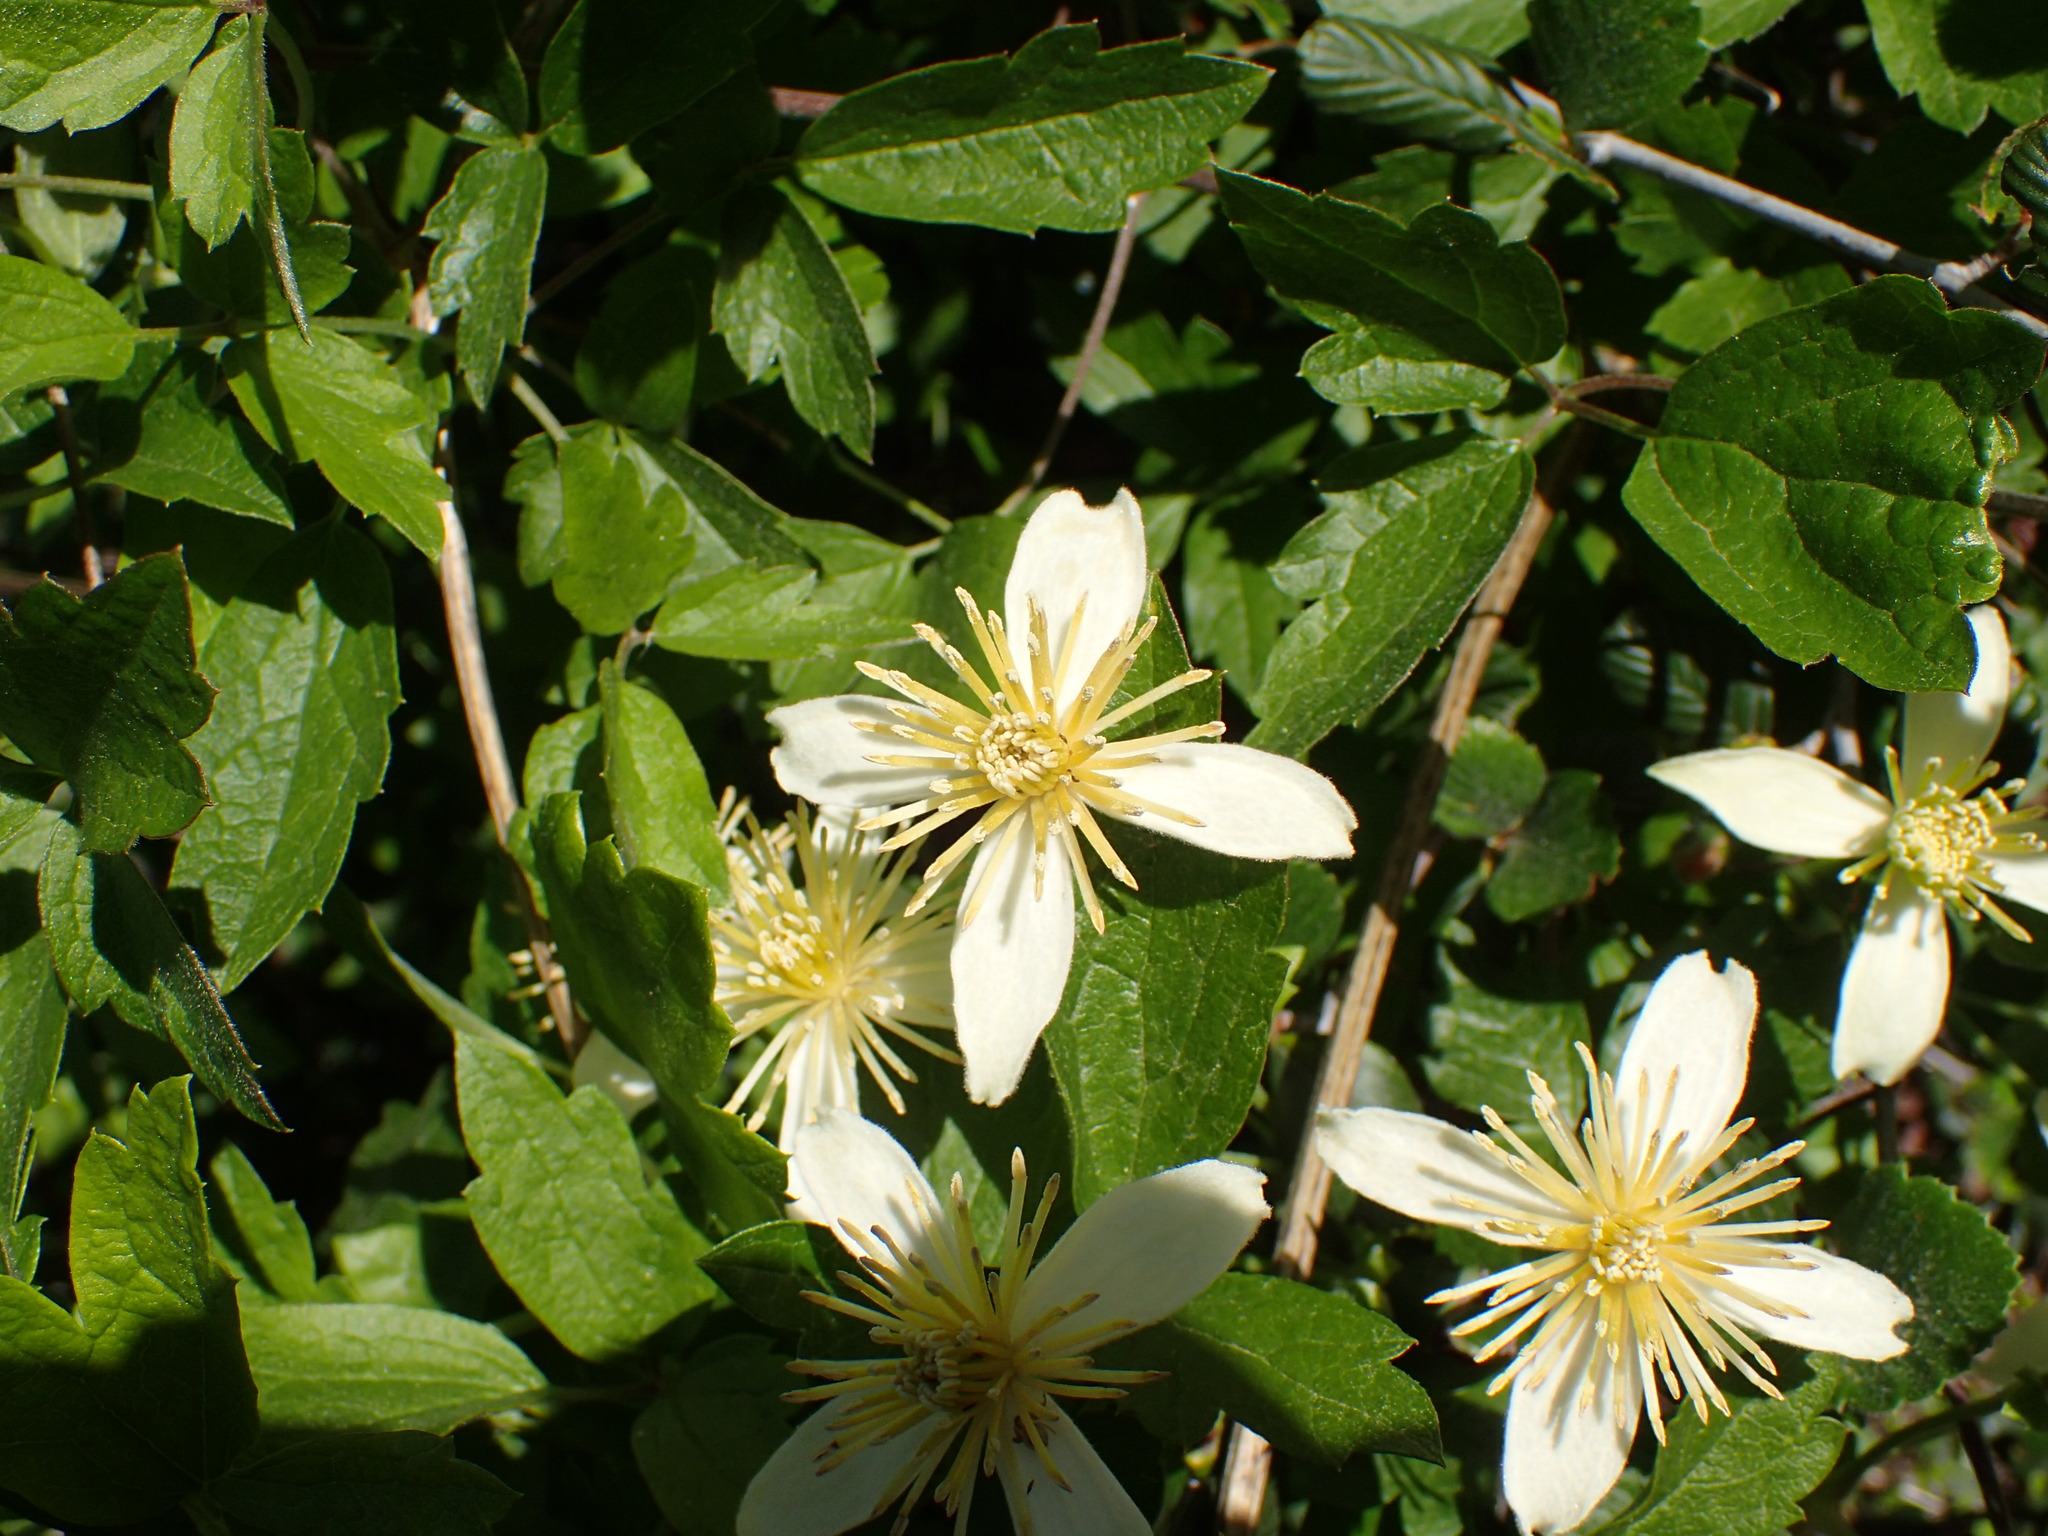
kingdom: Plantae
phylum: Tracheophyta
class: Magnoliopsida
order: Ranunculales
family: Ranunculaceae
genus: Clematis
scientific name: Clematis lasiantha
